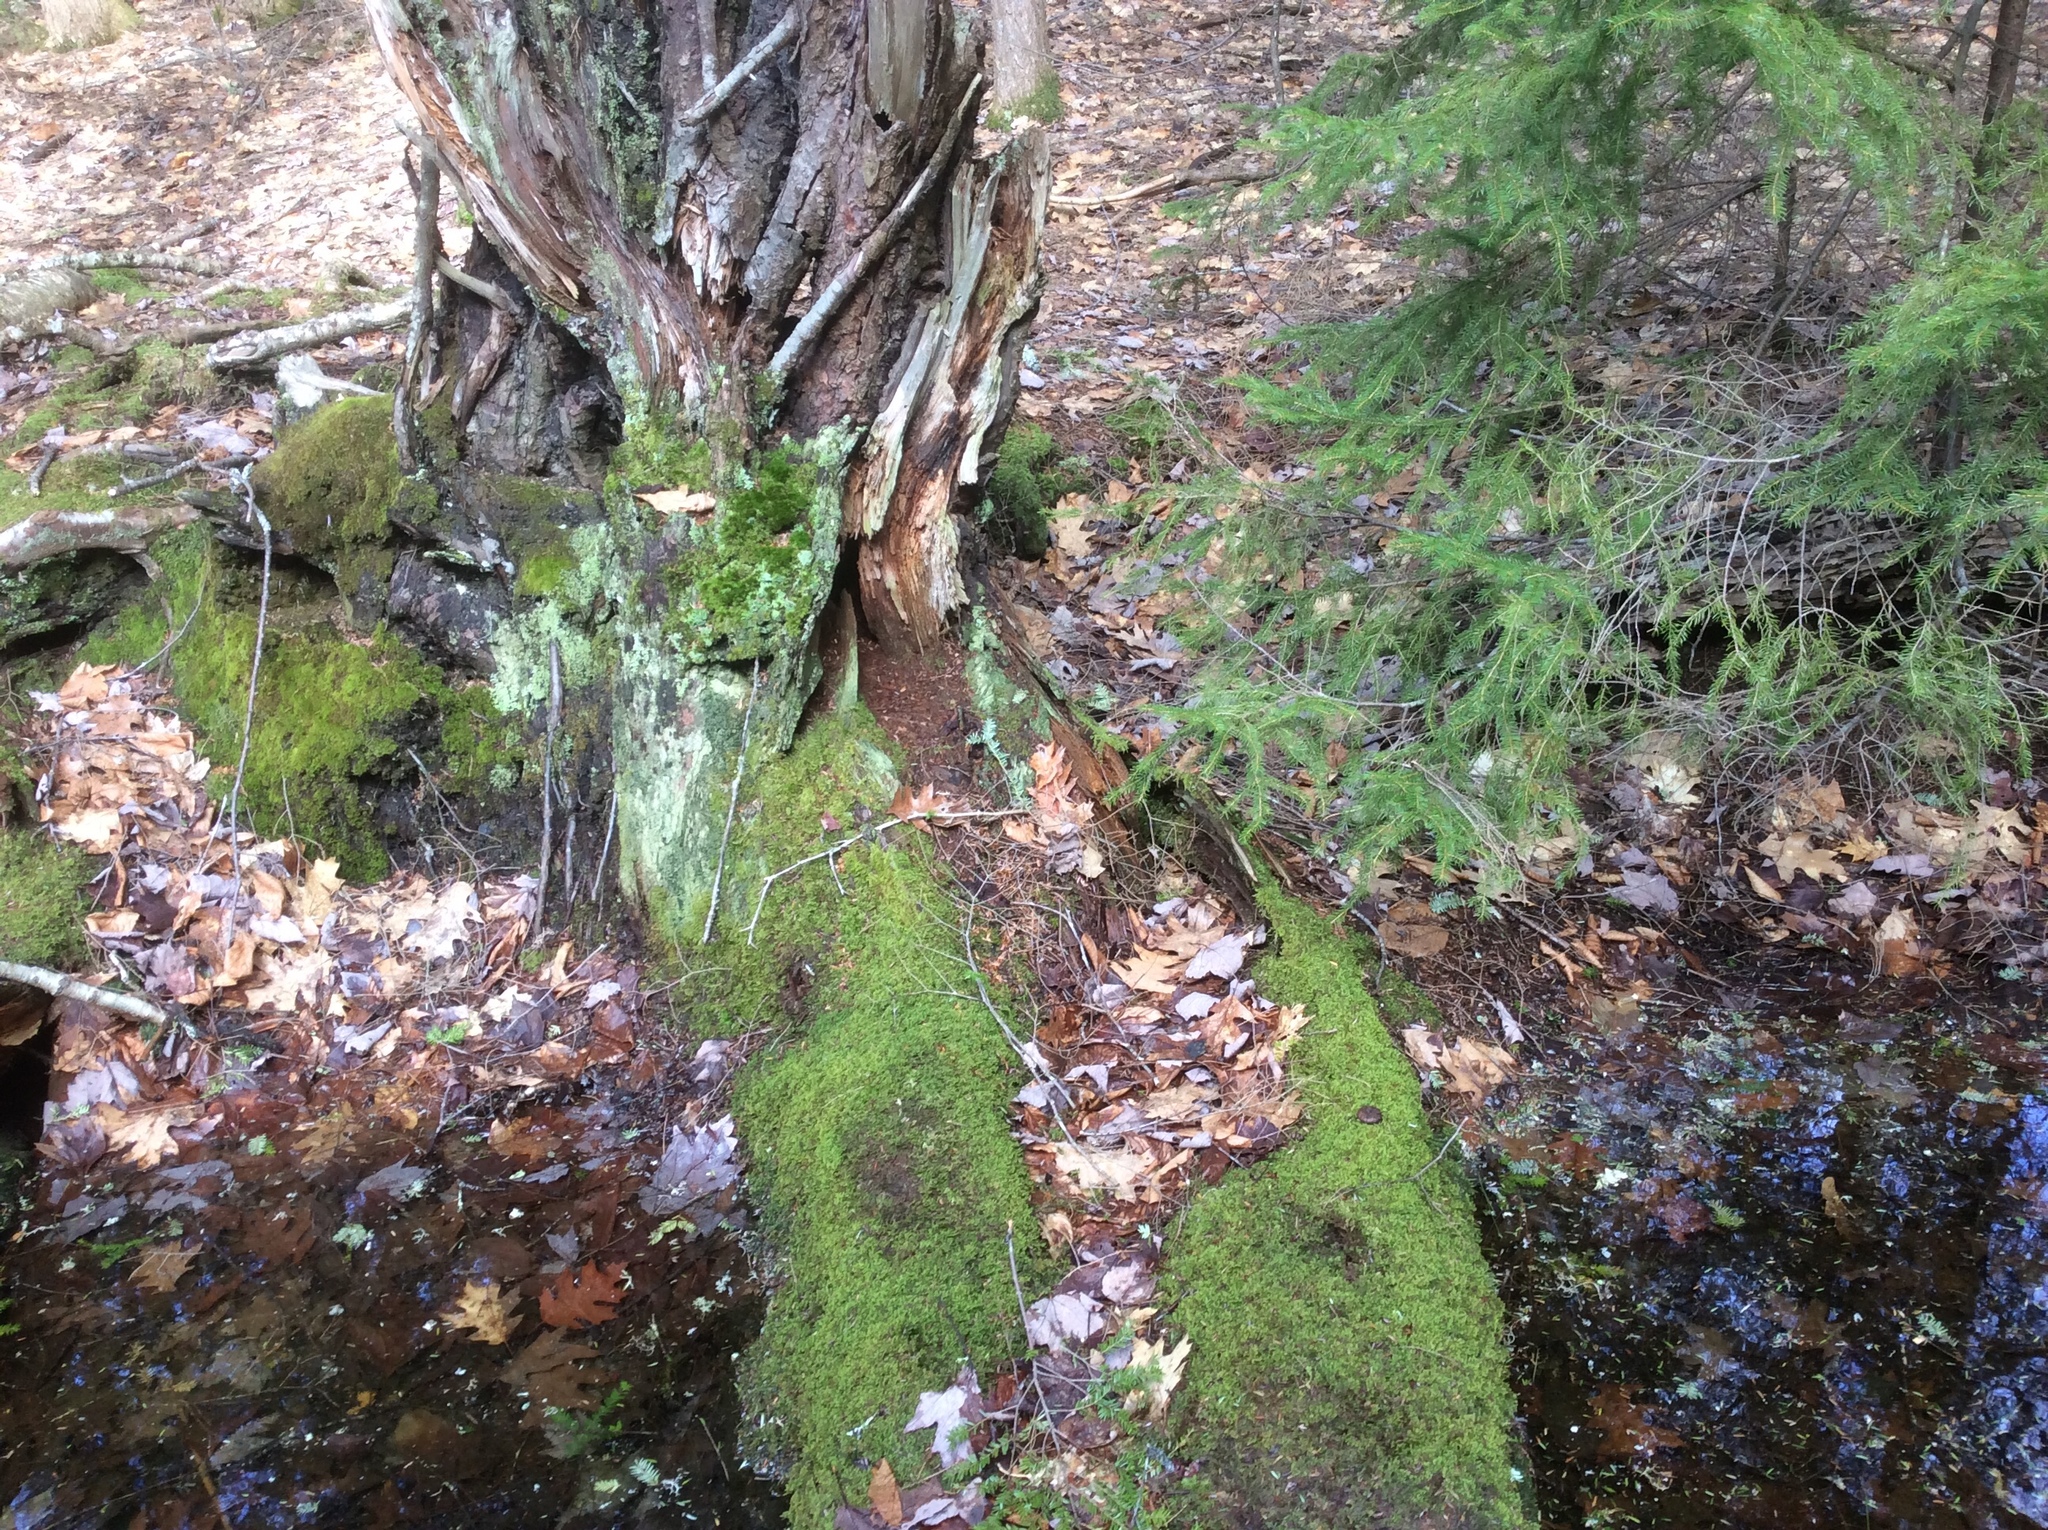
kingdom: Plantae
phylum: Tracheophyta
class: Pinopsida
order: Pinales
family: Pinaceae
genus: Tsuga
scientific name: Tsuga canadensis
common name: Eastern hemlock
